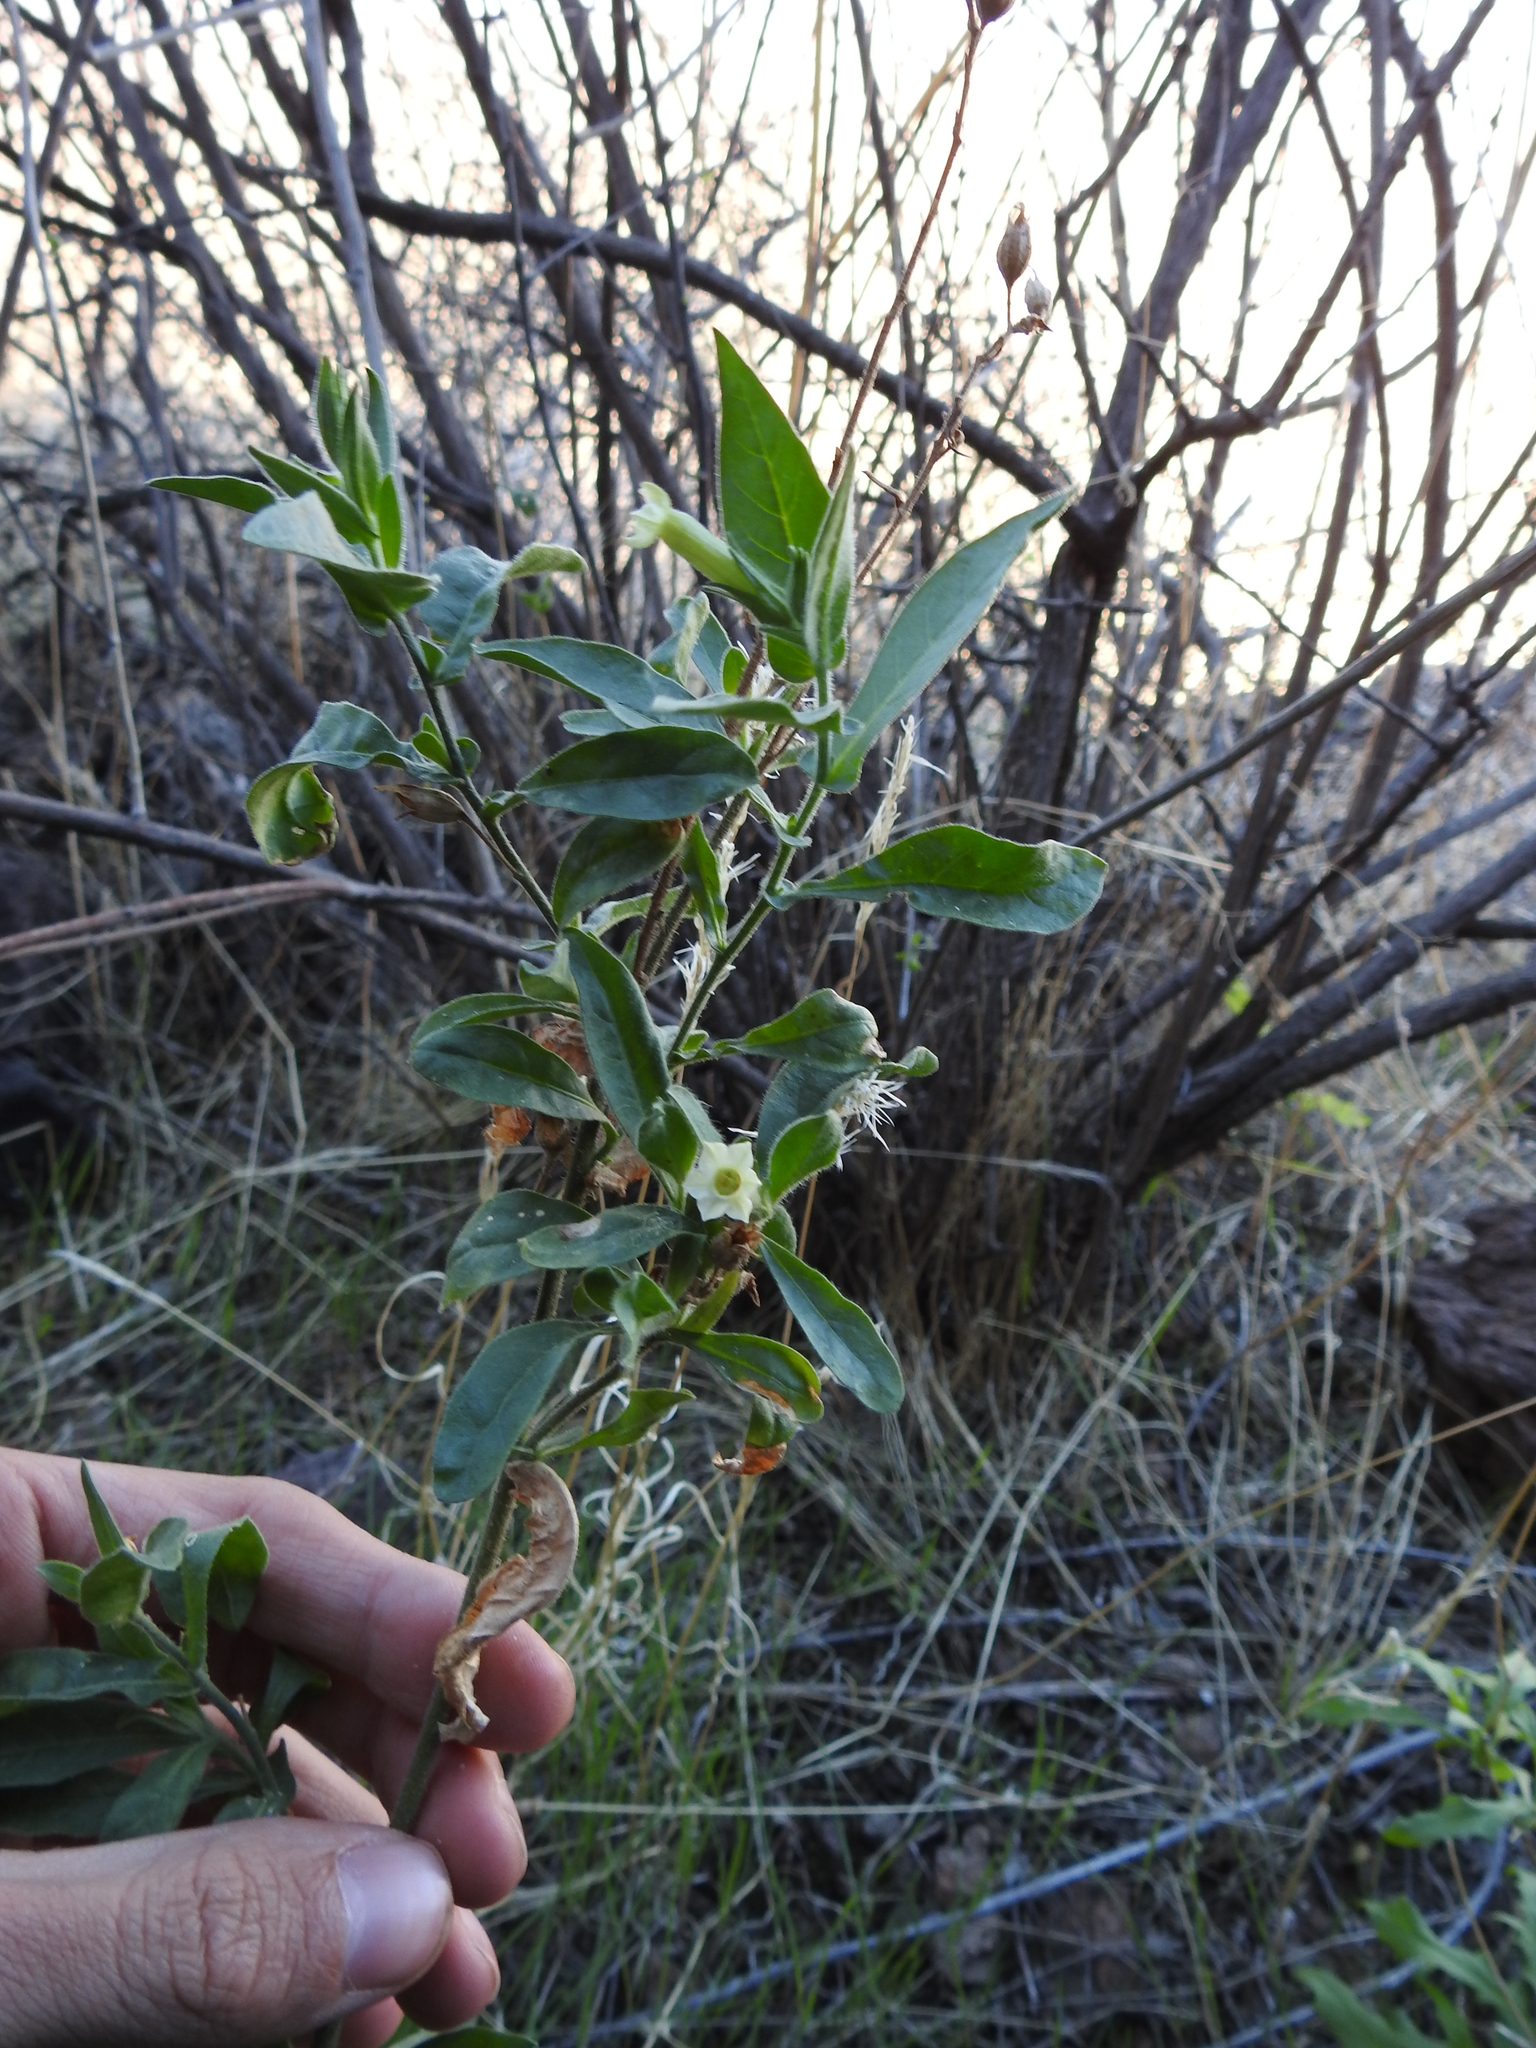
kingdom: Plantae
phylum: Tracheophyta
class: Magnoliopsida
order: Solanales
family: Solanaceae
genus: Nicotiana
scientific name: Nicotiana obtusifolia
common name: Desert tobacco
